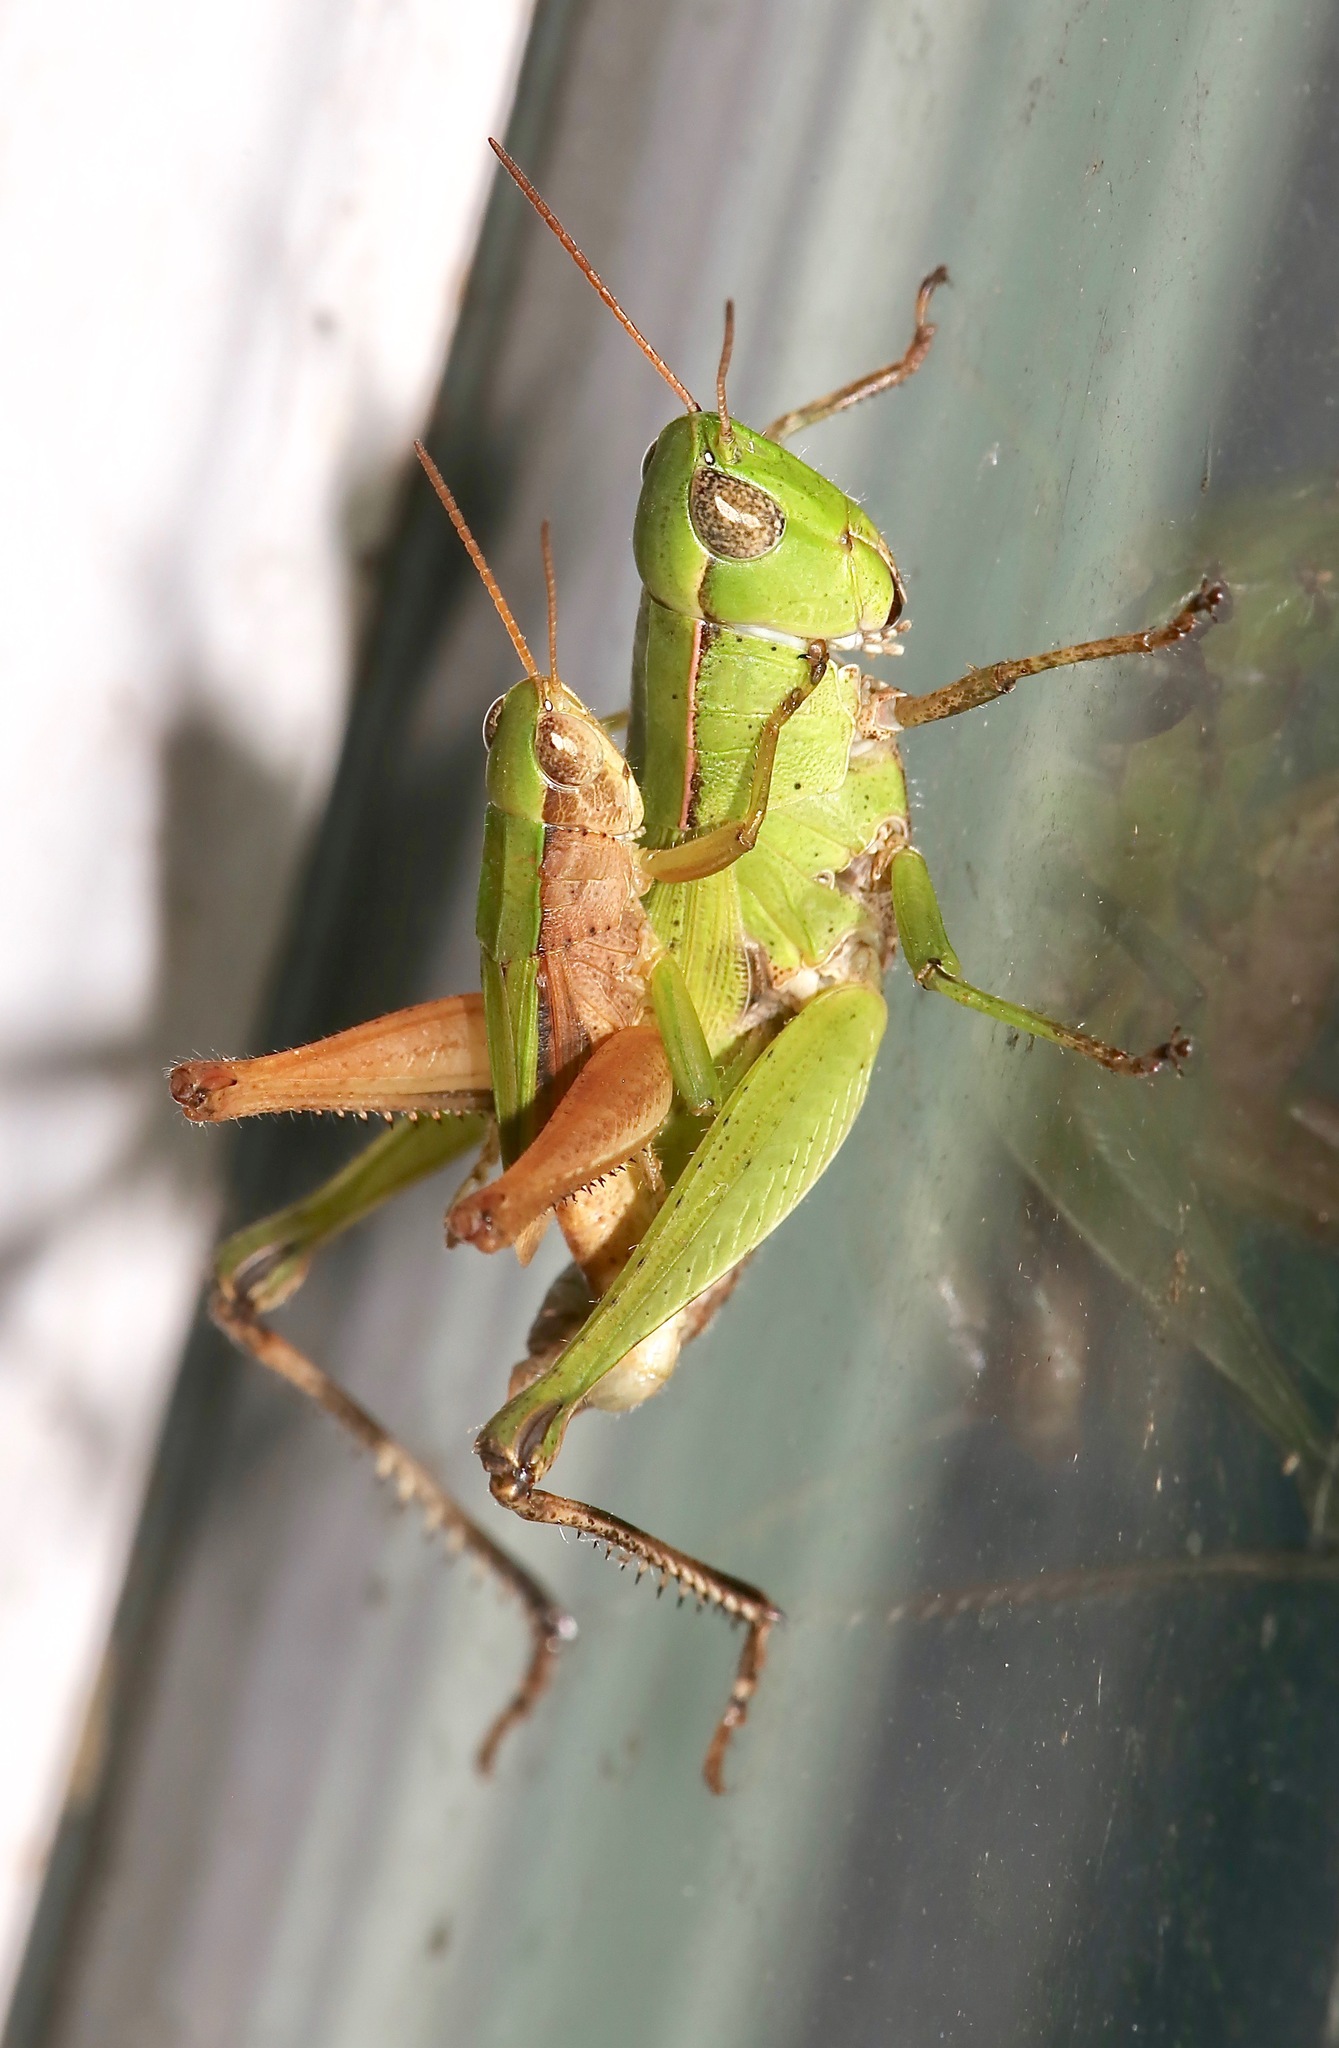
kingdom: Animalia
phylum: Arthropoda
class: Insecta
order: Orthoptera
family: Acrididae
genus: Dichromorpha
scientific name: Dichromorpha viridis
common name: Short-winged green grasshopper
